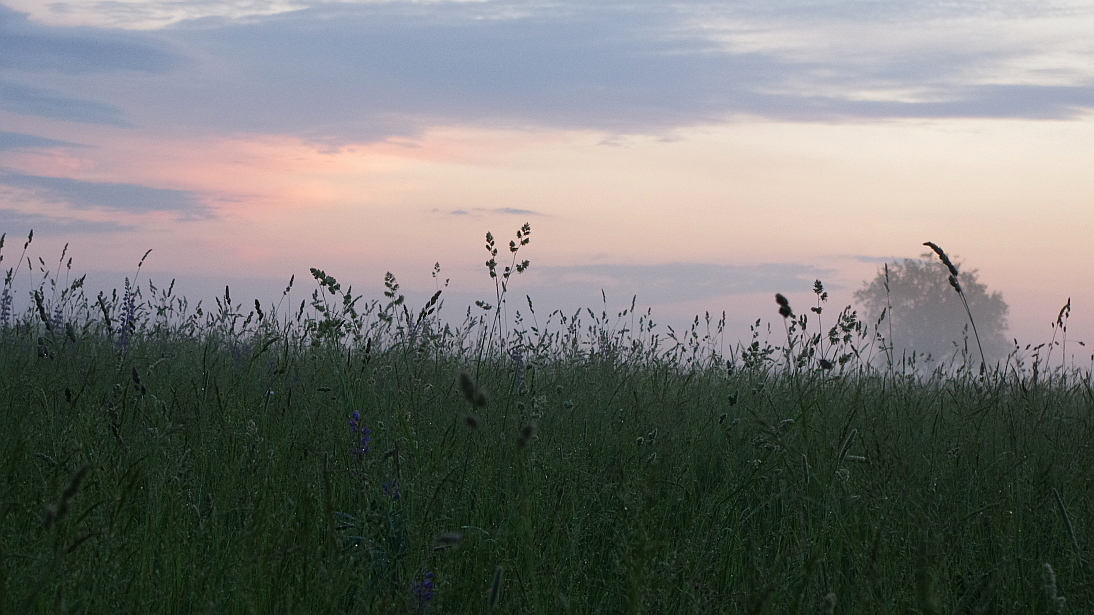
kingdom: Plantae
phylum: Tracheophyta
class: Liliopsida
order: Poales
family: Poaceae
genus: Dactylis
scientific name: Dactylis glomerata
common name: Orchardgrass
